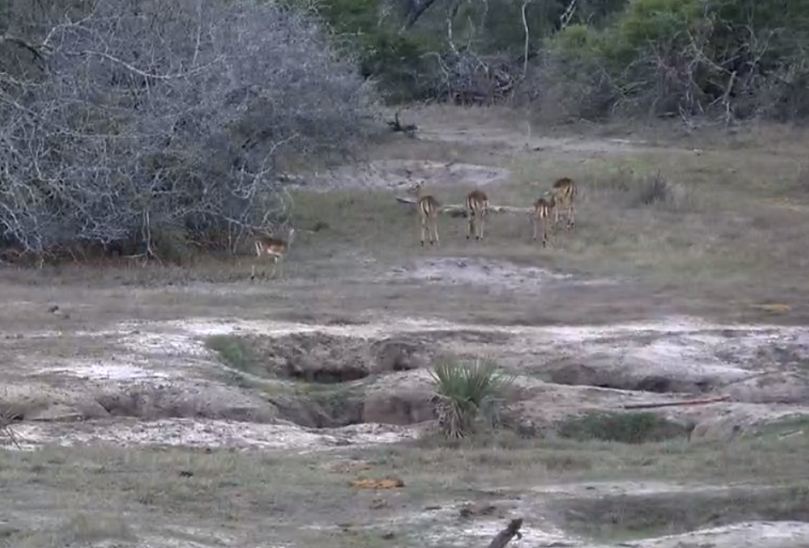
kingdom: Animalia
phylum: Chordata
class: Mammalia
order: Artiodactyla
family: Bovidae
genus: Aepyceros
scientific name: Aepyceros melampus
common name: Impala
